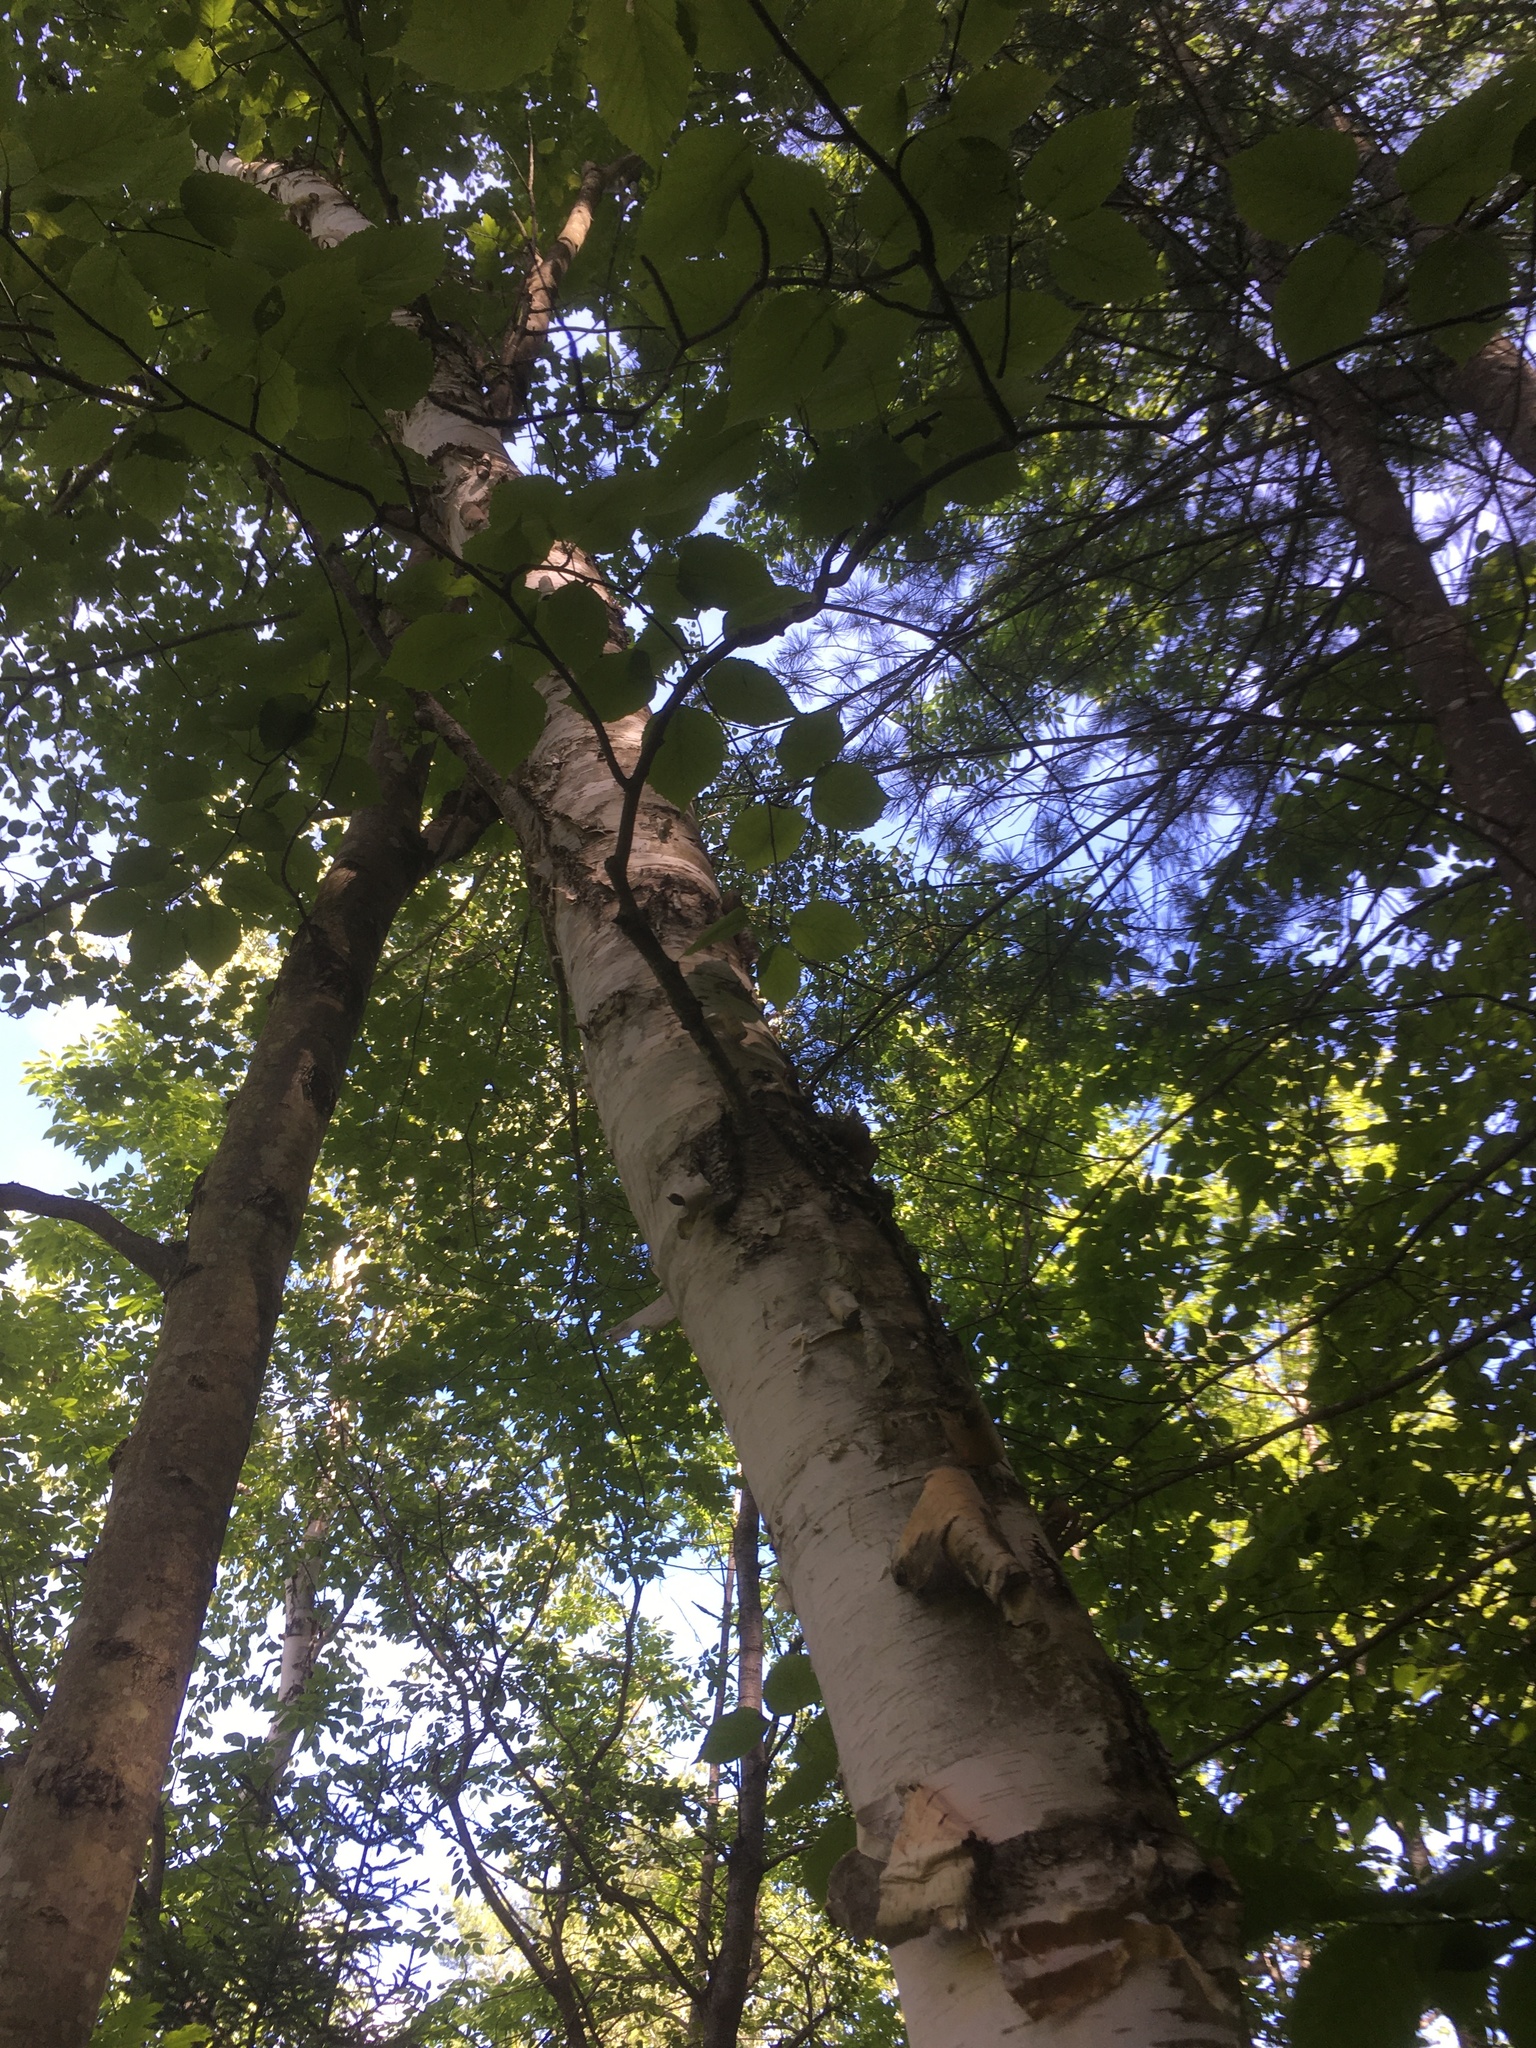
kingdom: Plantae
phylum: Tracheophyta
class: Magnoliopsida
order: Fagales
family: Betulaceae
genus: Betula
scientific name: Betula papyrifera
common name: Paper birch
